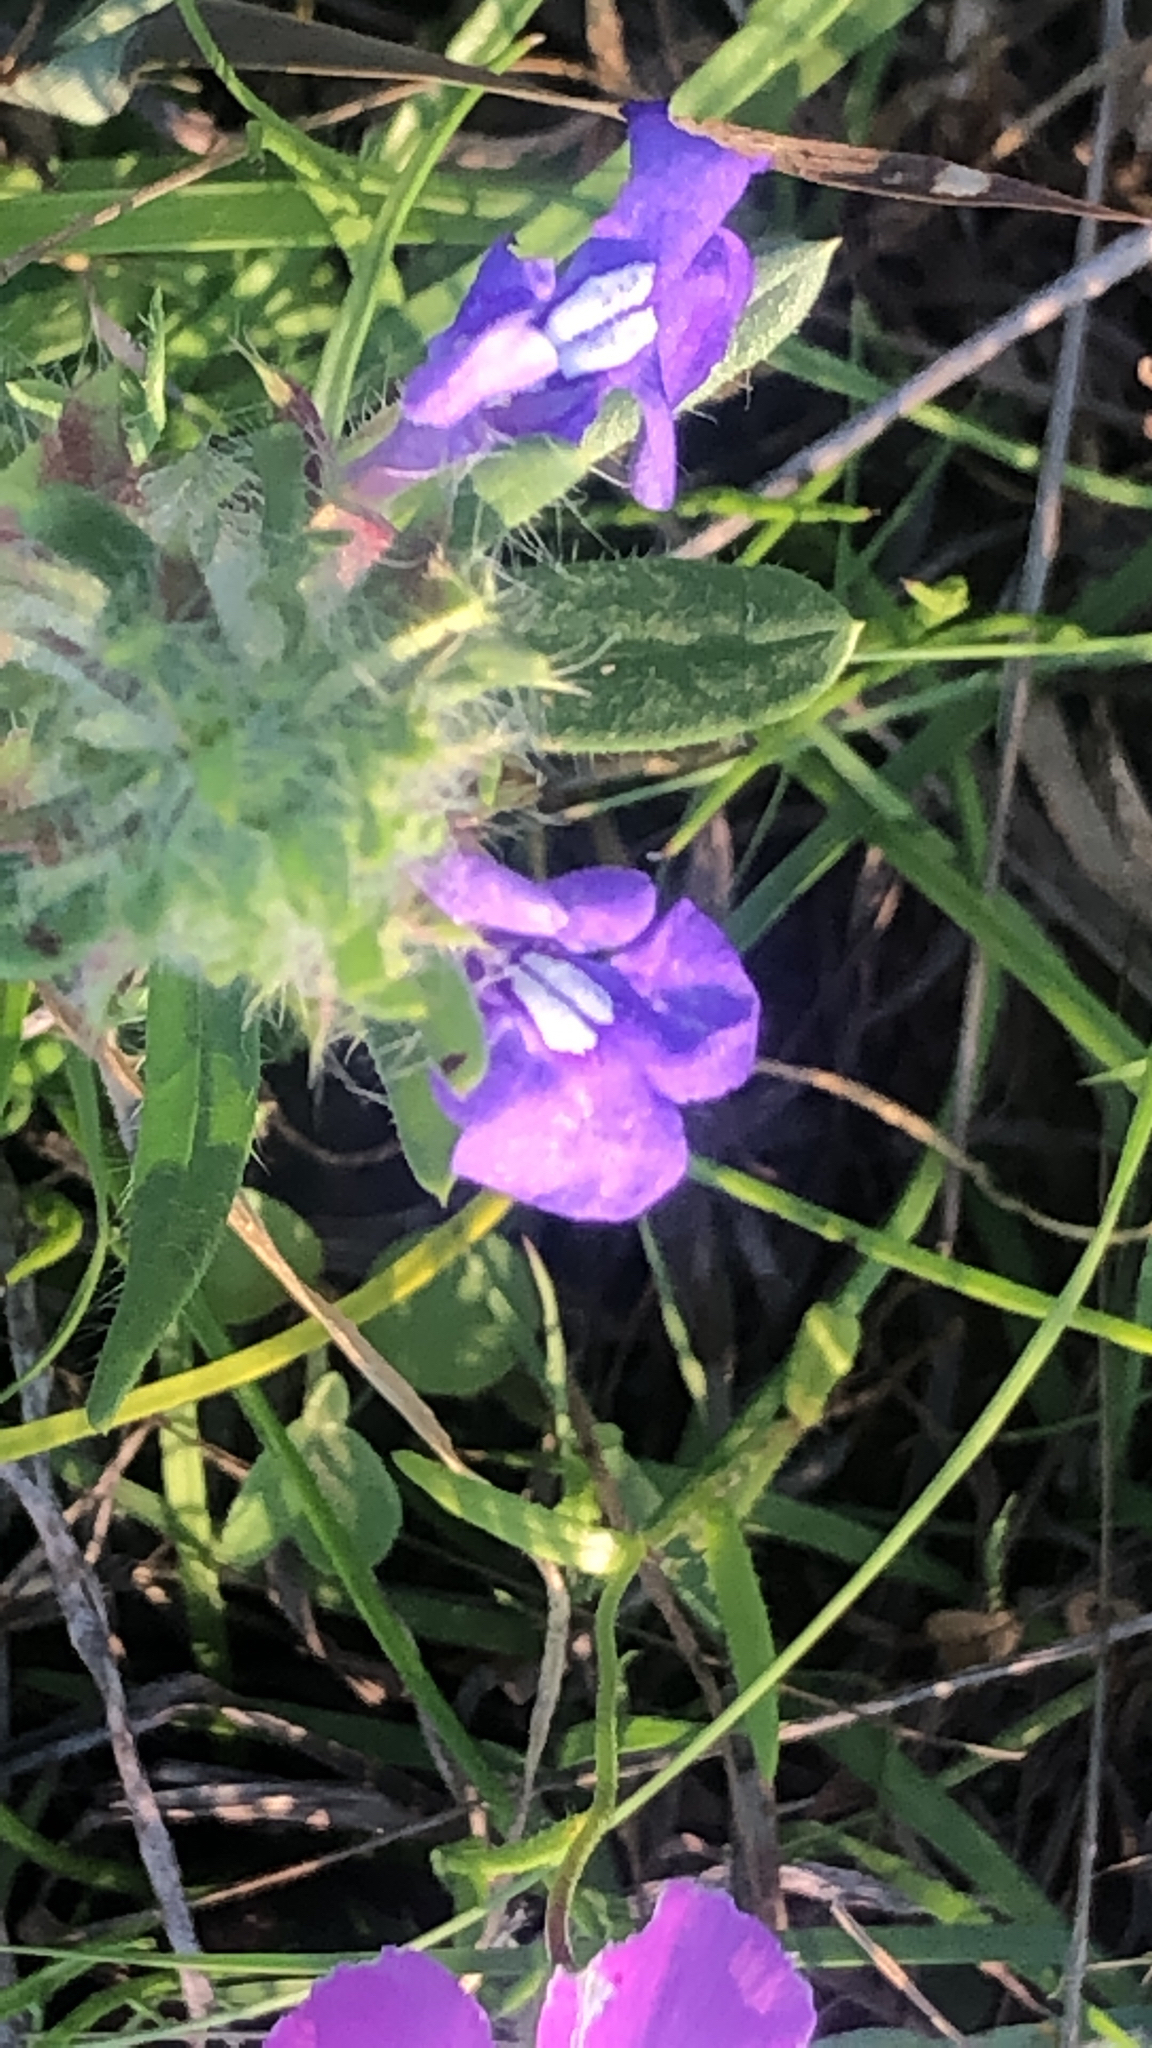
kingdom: Plantae
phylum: Tracheophyta
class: Magnoliopsida
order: Lamiales
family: Lamiaceae
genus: Salvia
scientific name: Salvia texana
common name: Texas sage
